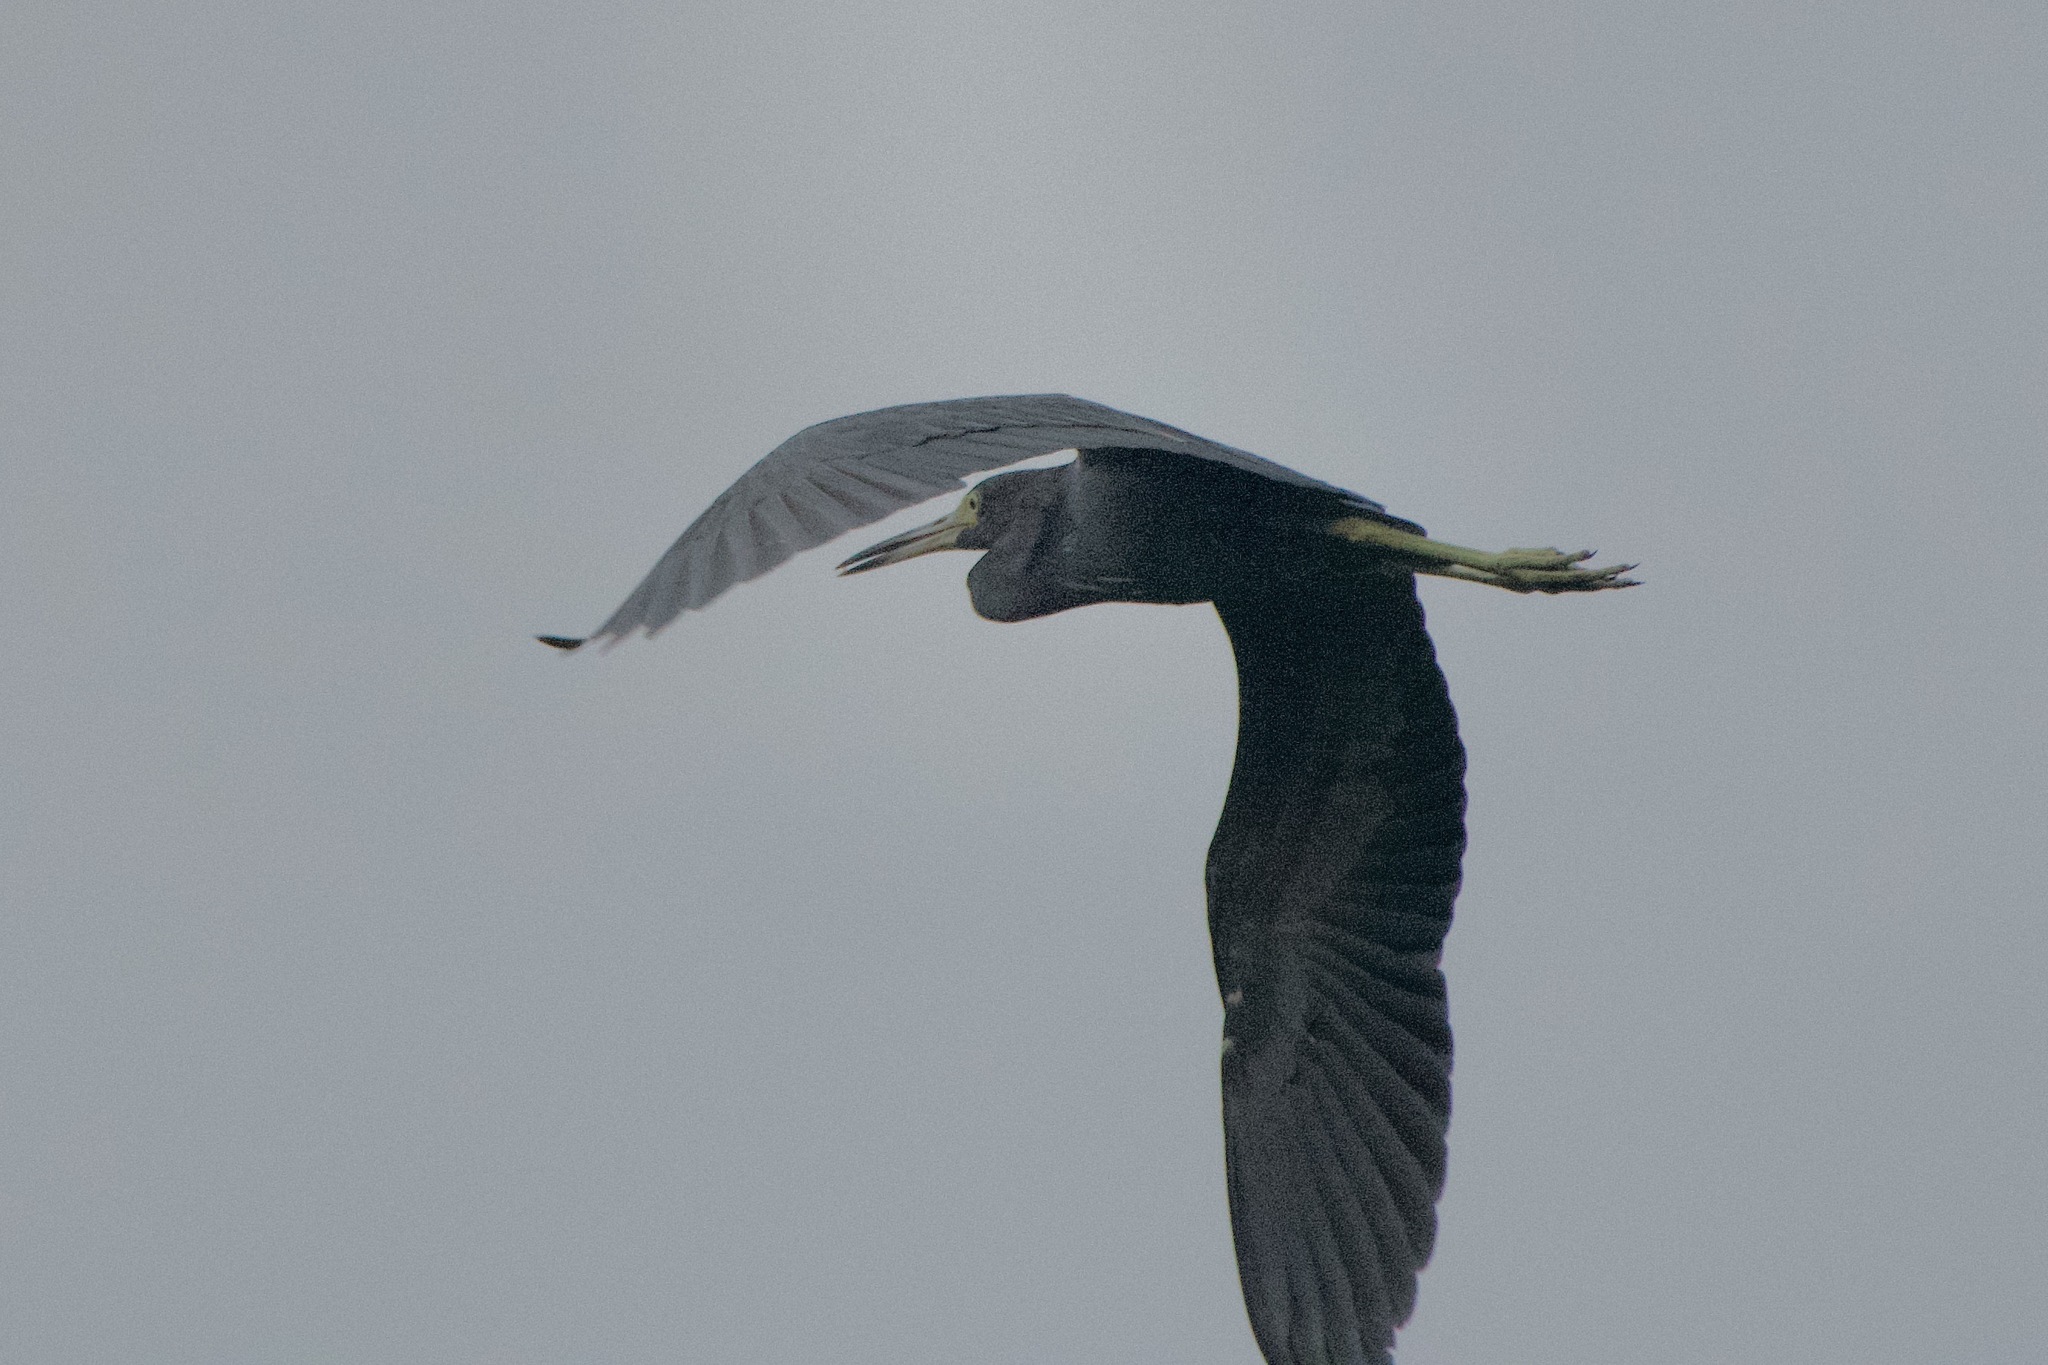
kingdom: Animalia
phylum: Chordata
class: Aves
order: Pelecaniformes
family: Ardeidae
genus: Egretta
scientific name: Egretta caerulea
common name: Little blue heron
